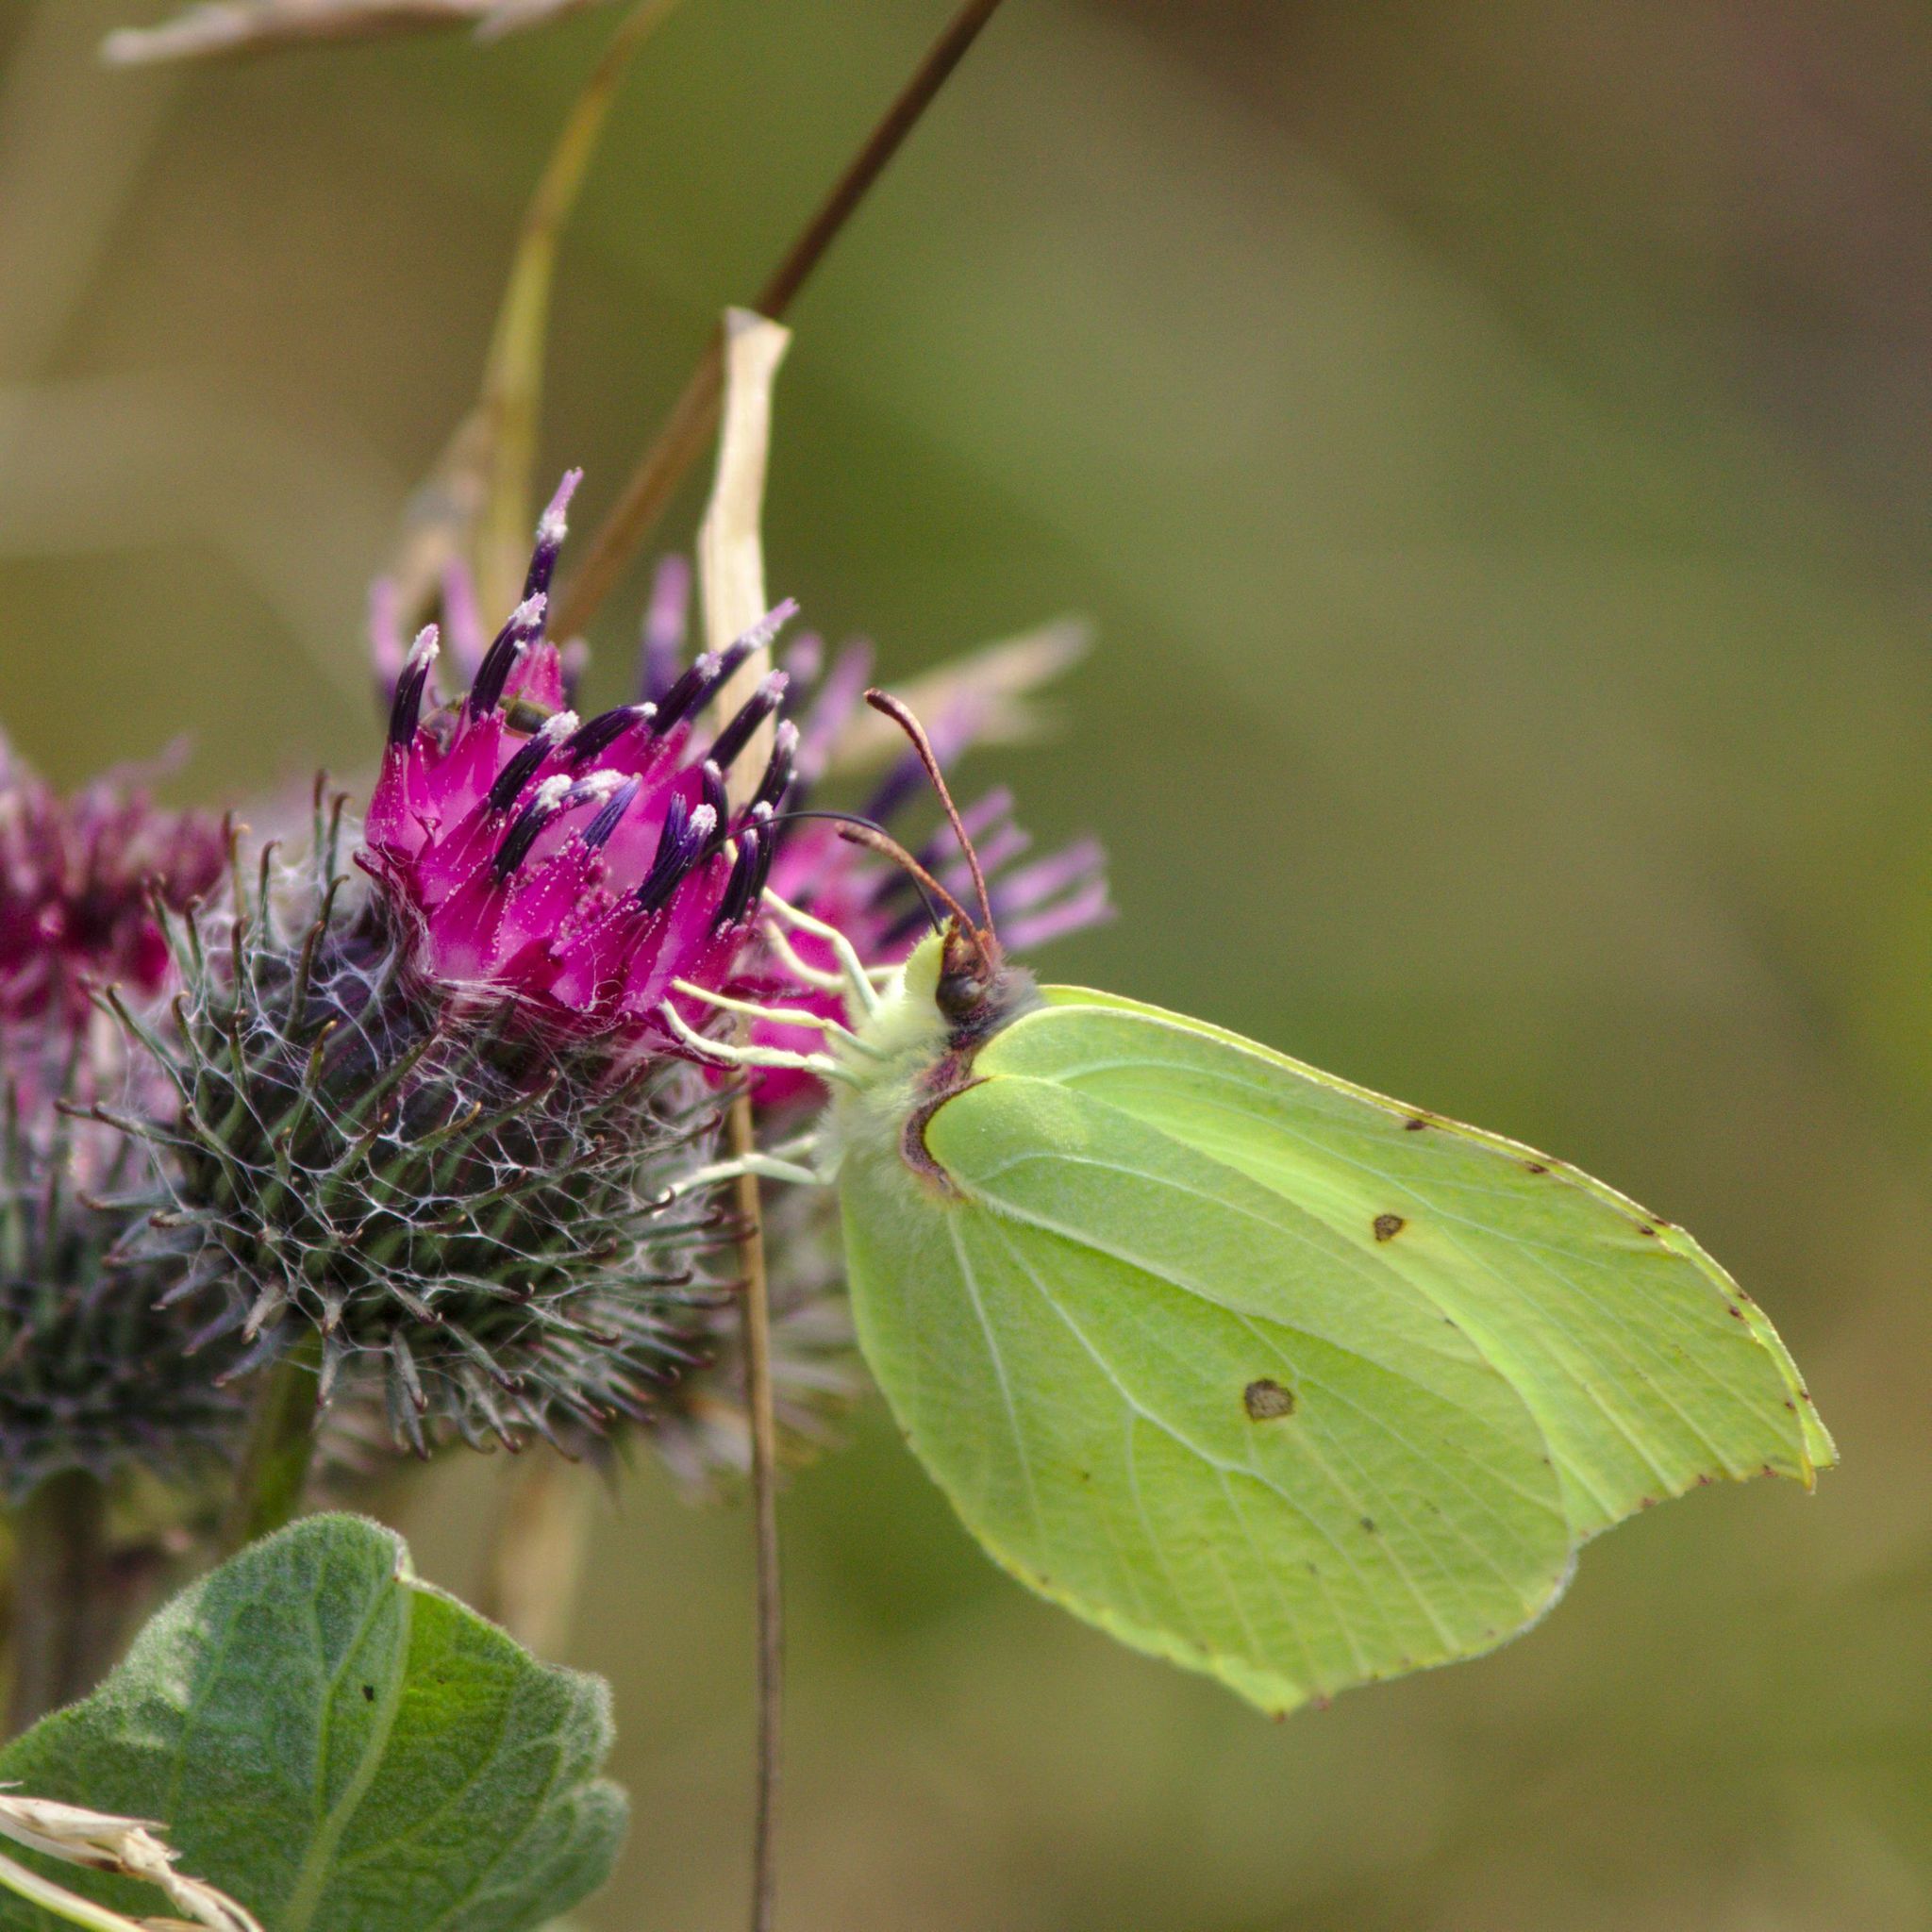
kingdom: Animalia
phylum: Arthropoda
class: Insecta
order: Lepidoptera
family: Pieridae
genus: Gonepteryx
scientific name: Gonepteryx rhamni
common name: Brimstone
